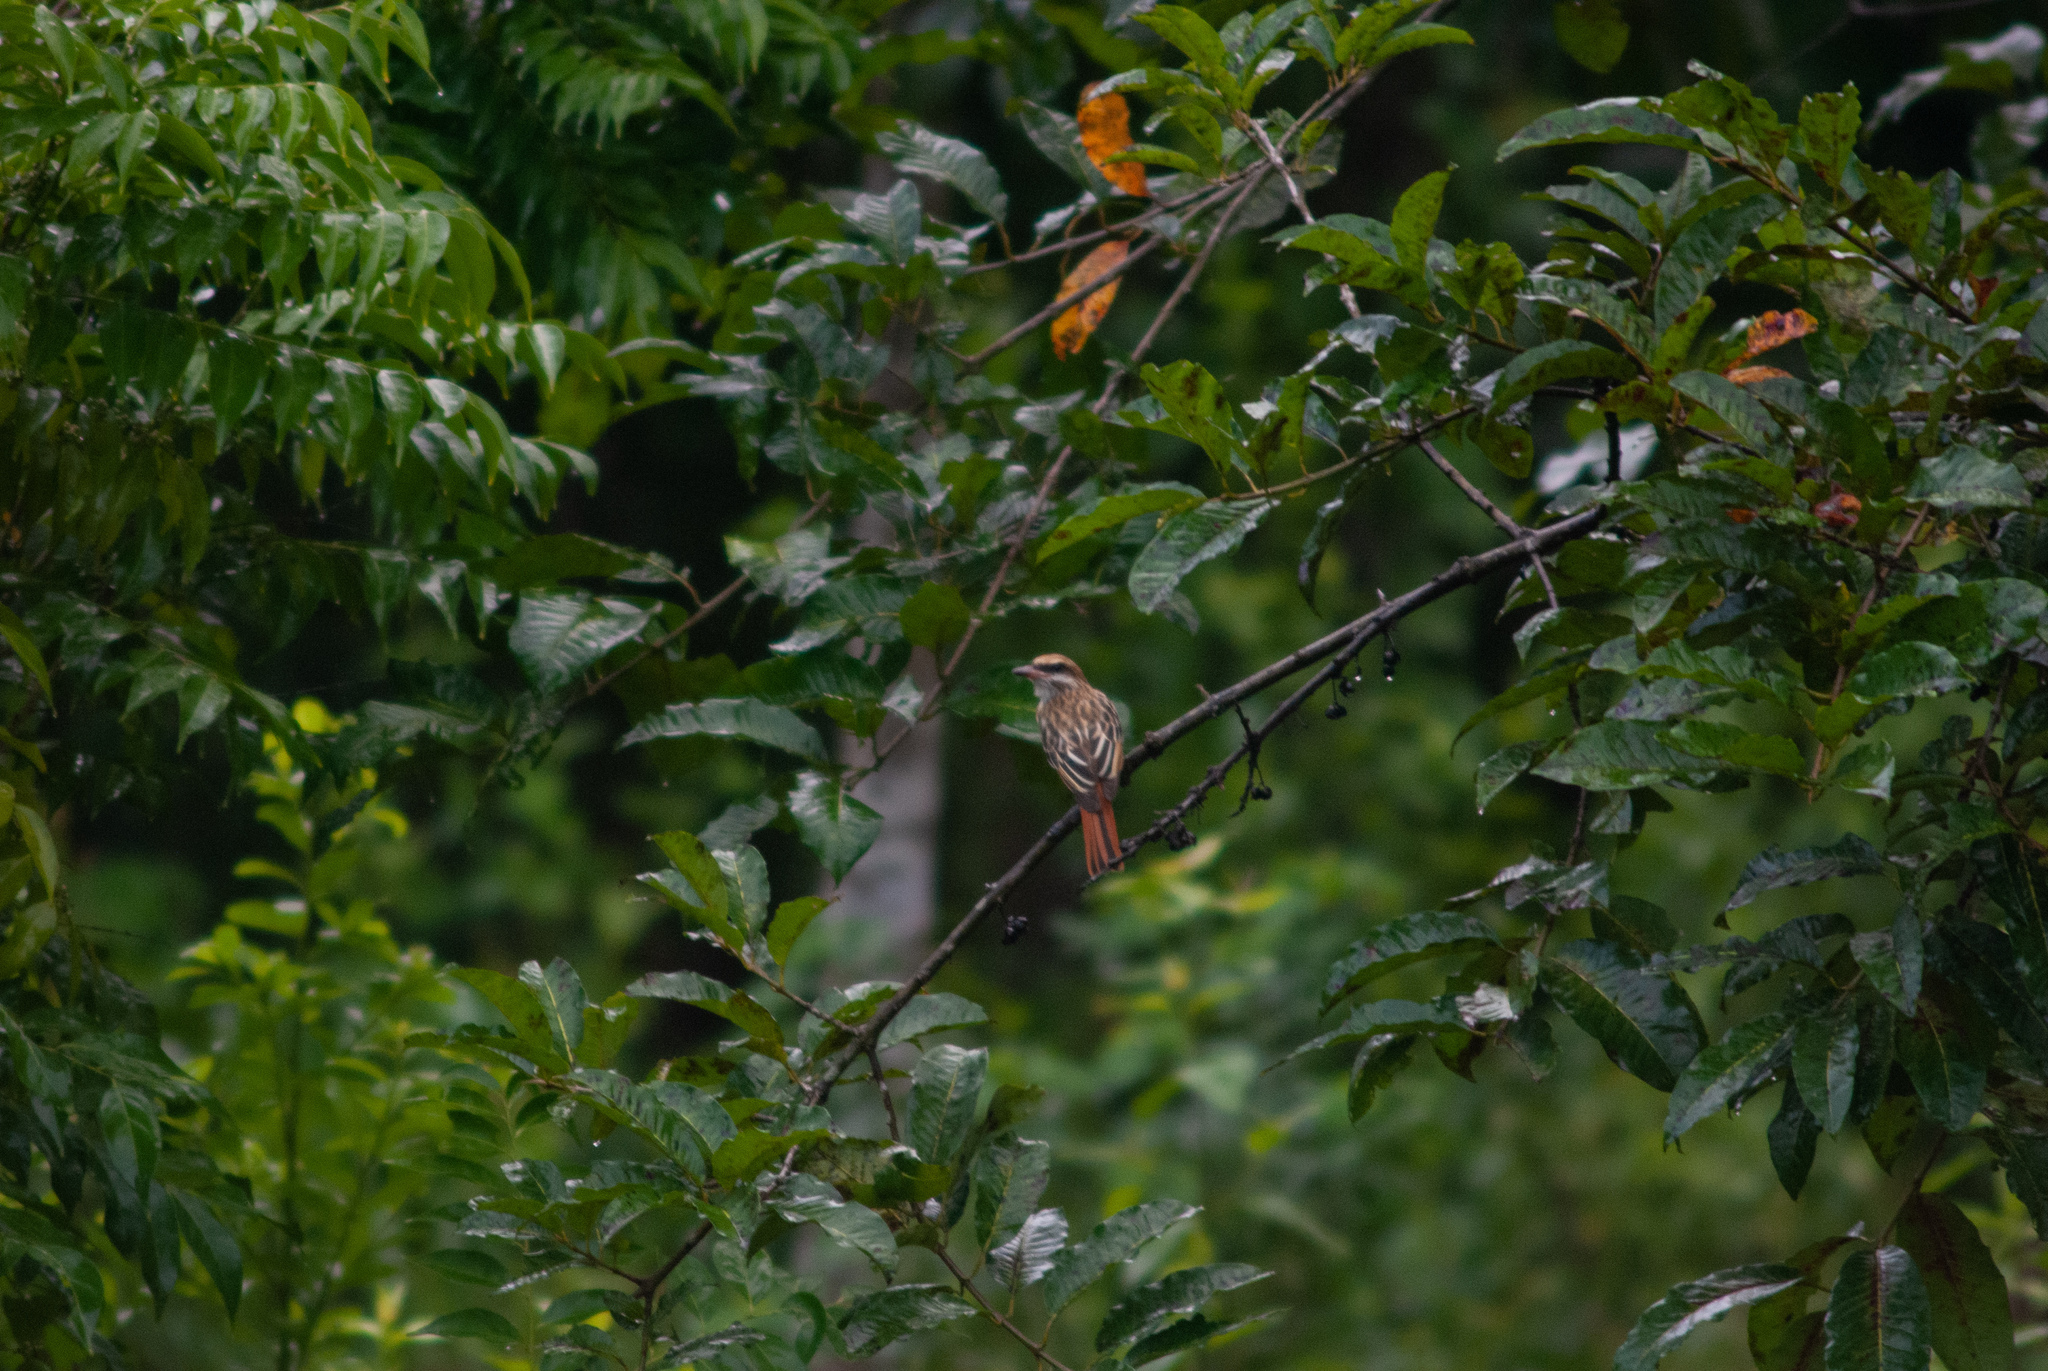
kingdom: Animalia
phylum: Chordata
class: Aves
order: Passeriformes
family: Tyrannidae
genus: Myiodynastes
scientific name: Myiodynastes maculatus
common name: Streaked flycatcher
